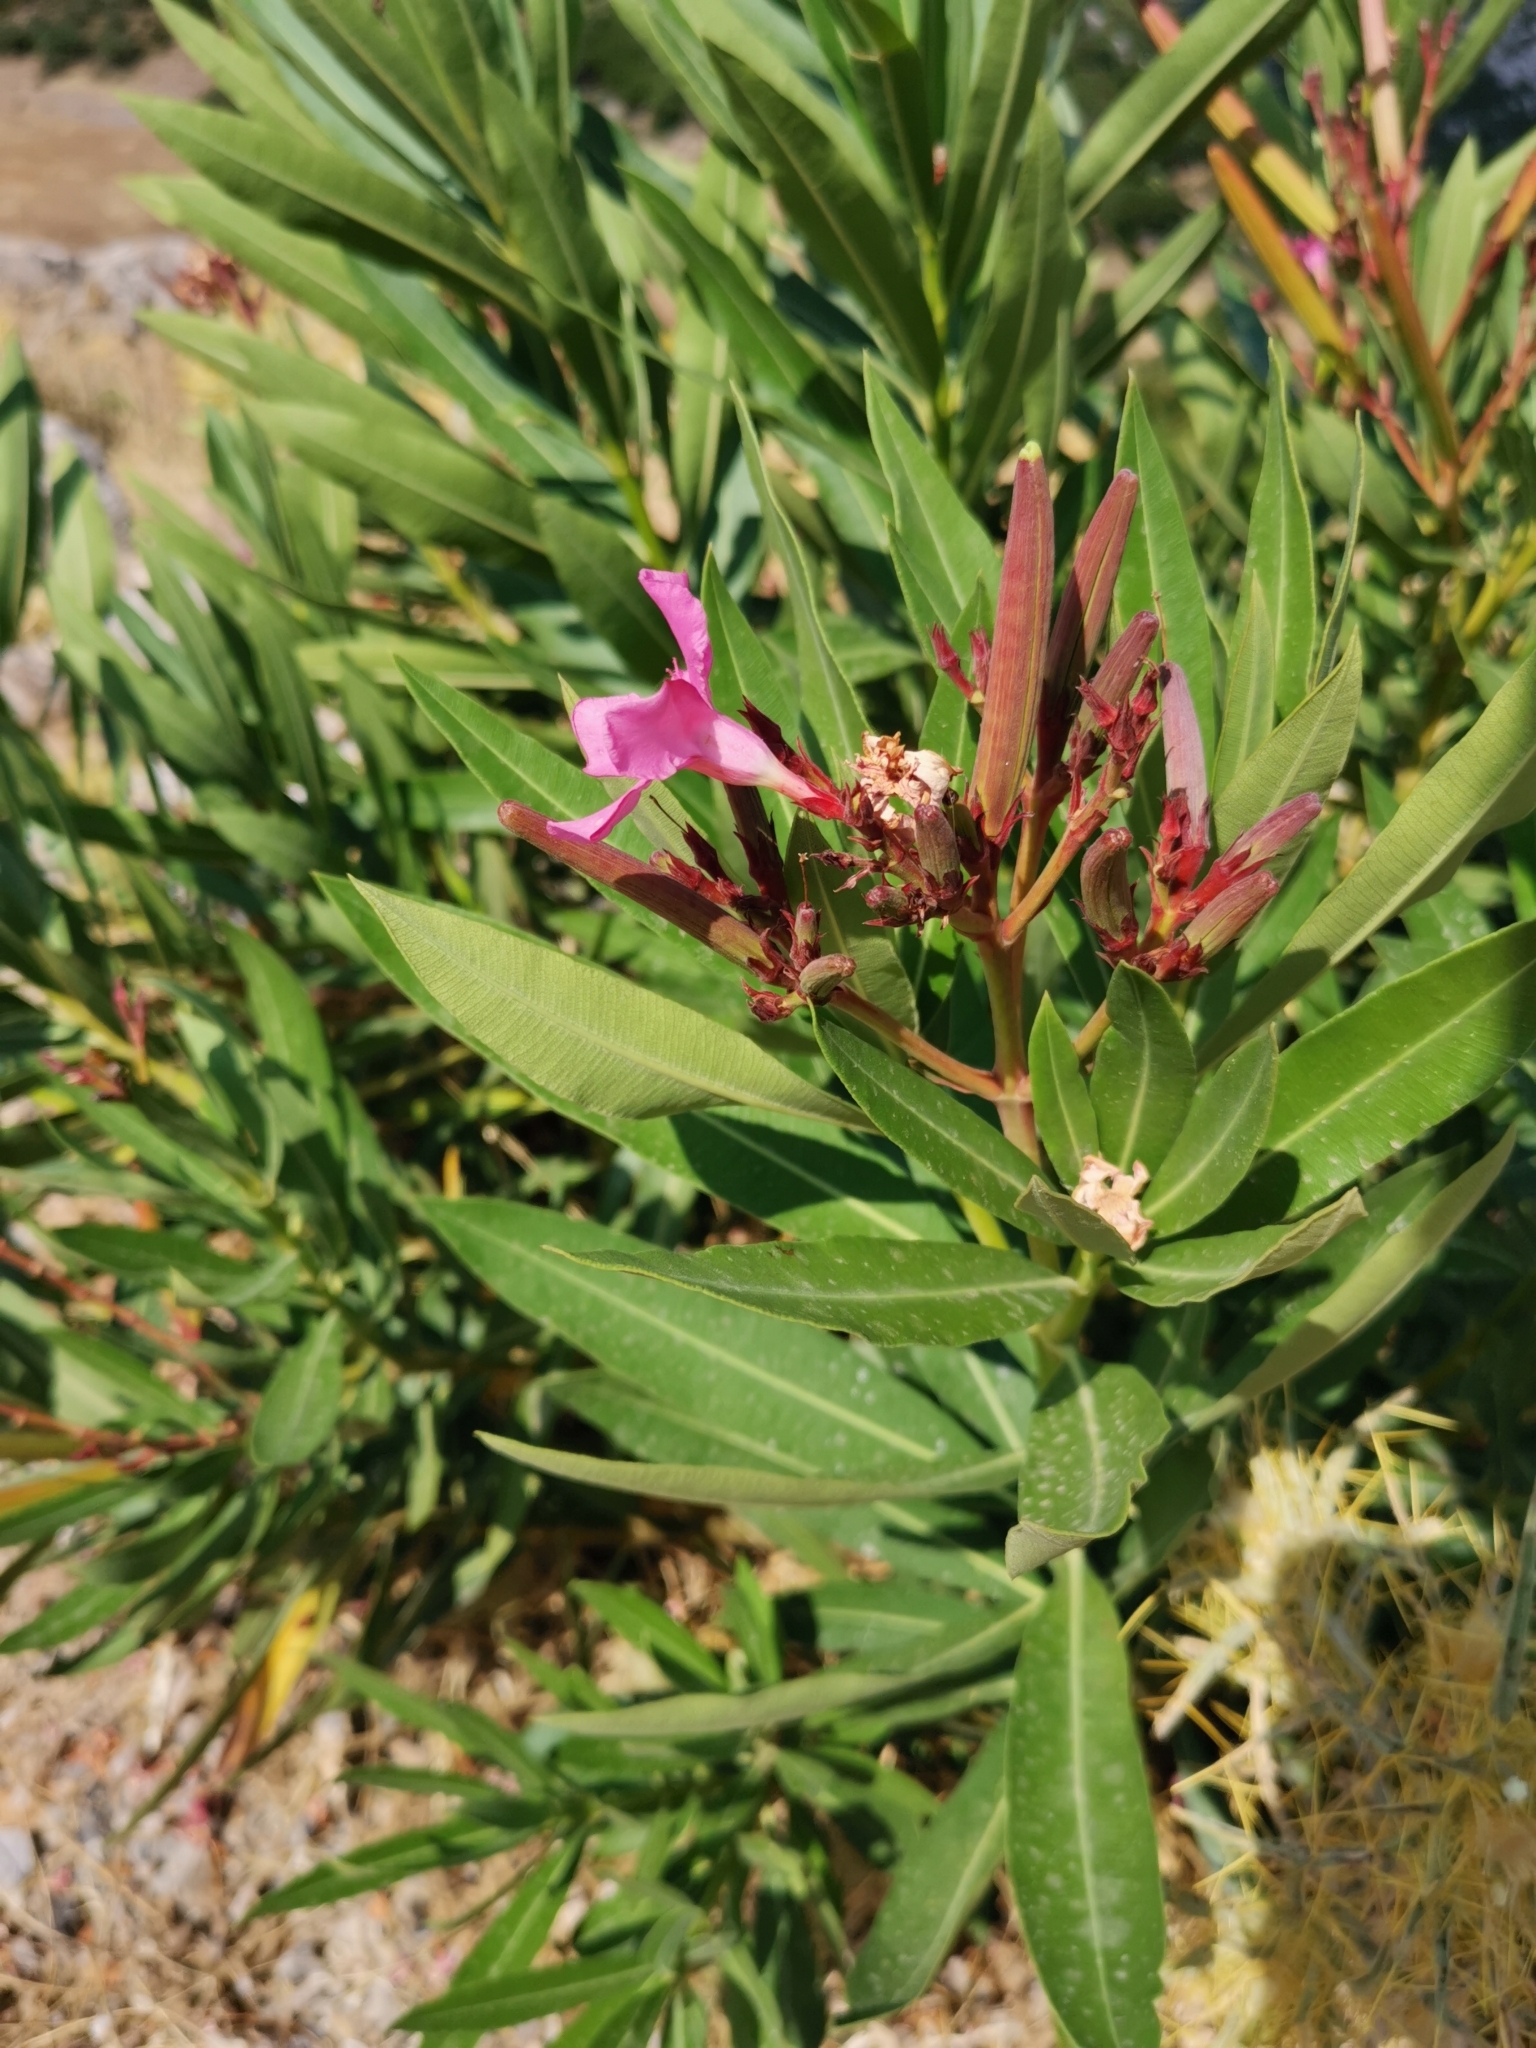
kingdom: Plantae
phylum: Tracheophyta
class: Magnoliopsida
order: Gentianales
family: Apocynaceae
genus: Nerium
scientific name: Nerium oleander
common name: Oleander
